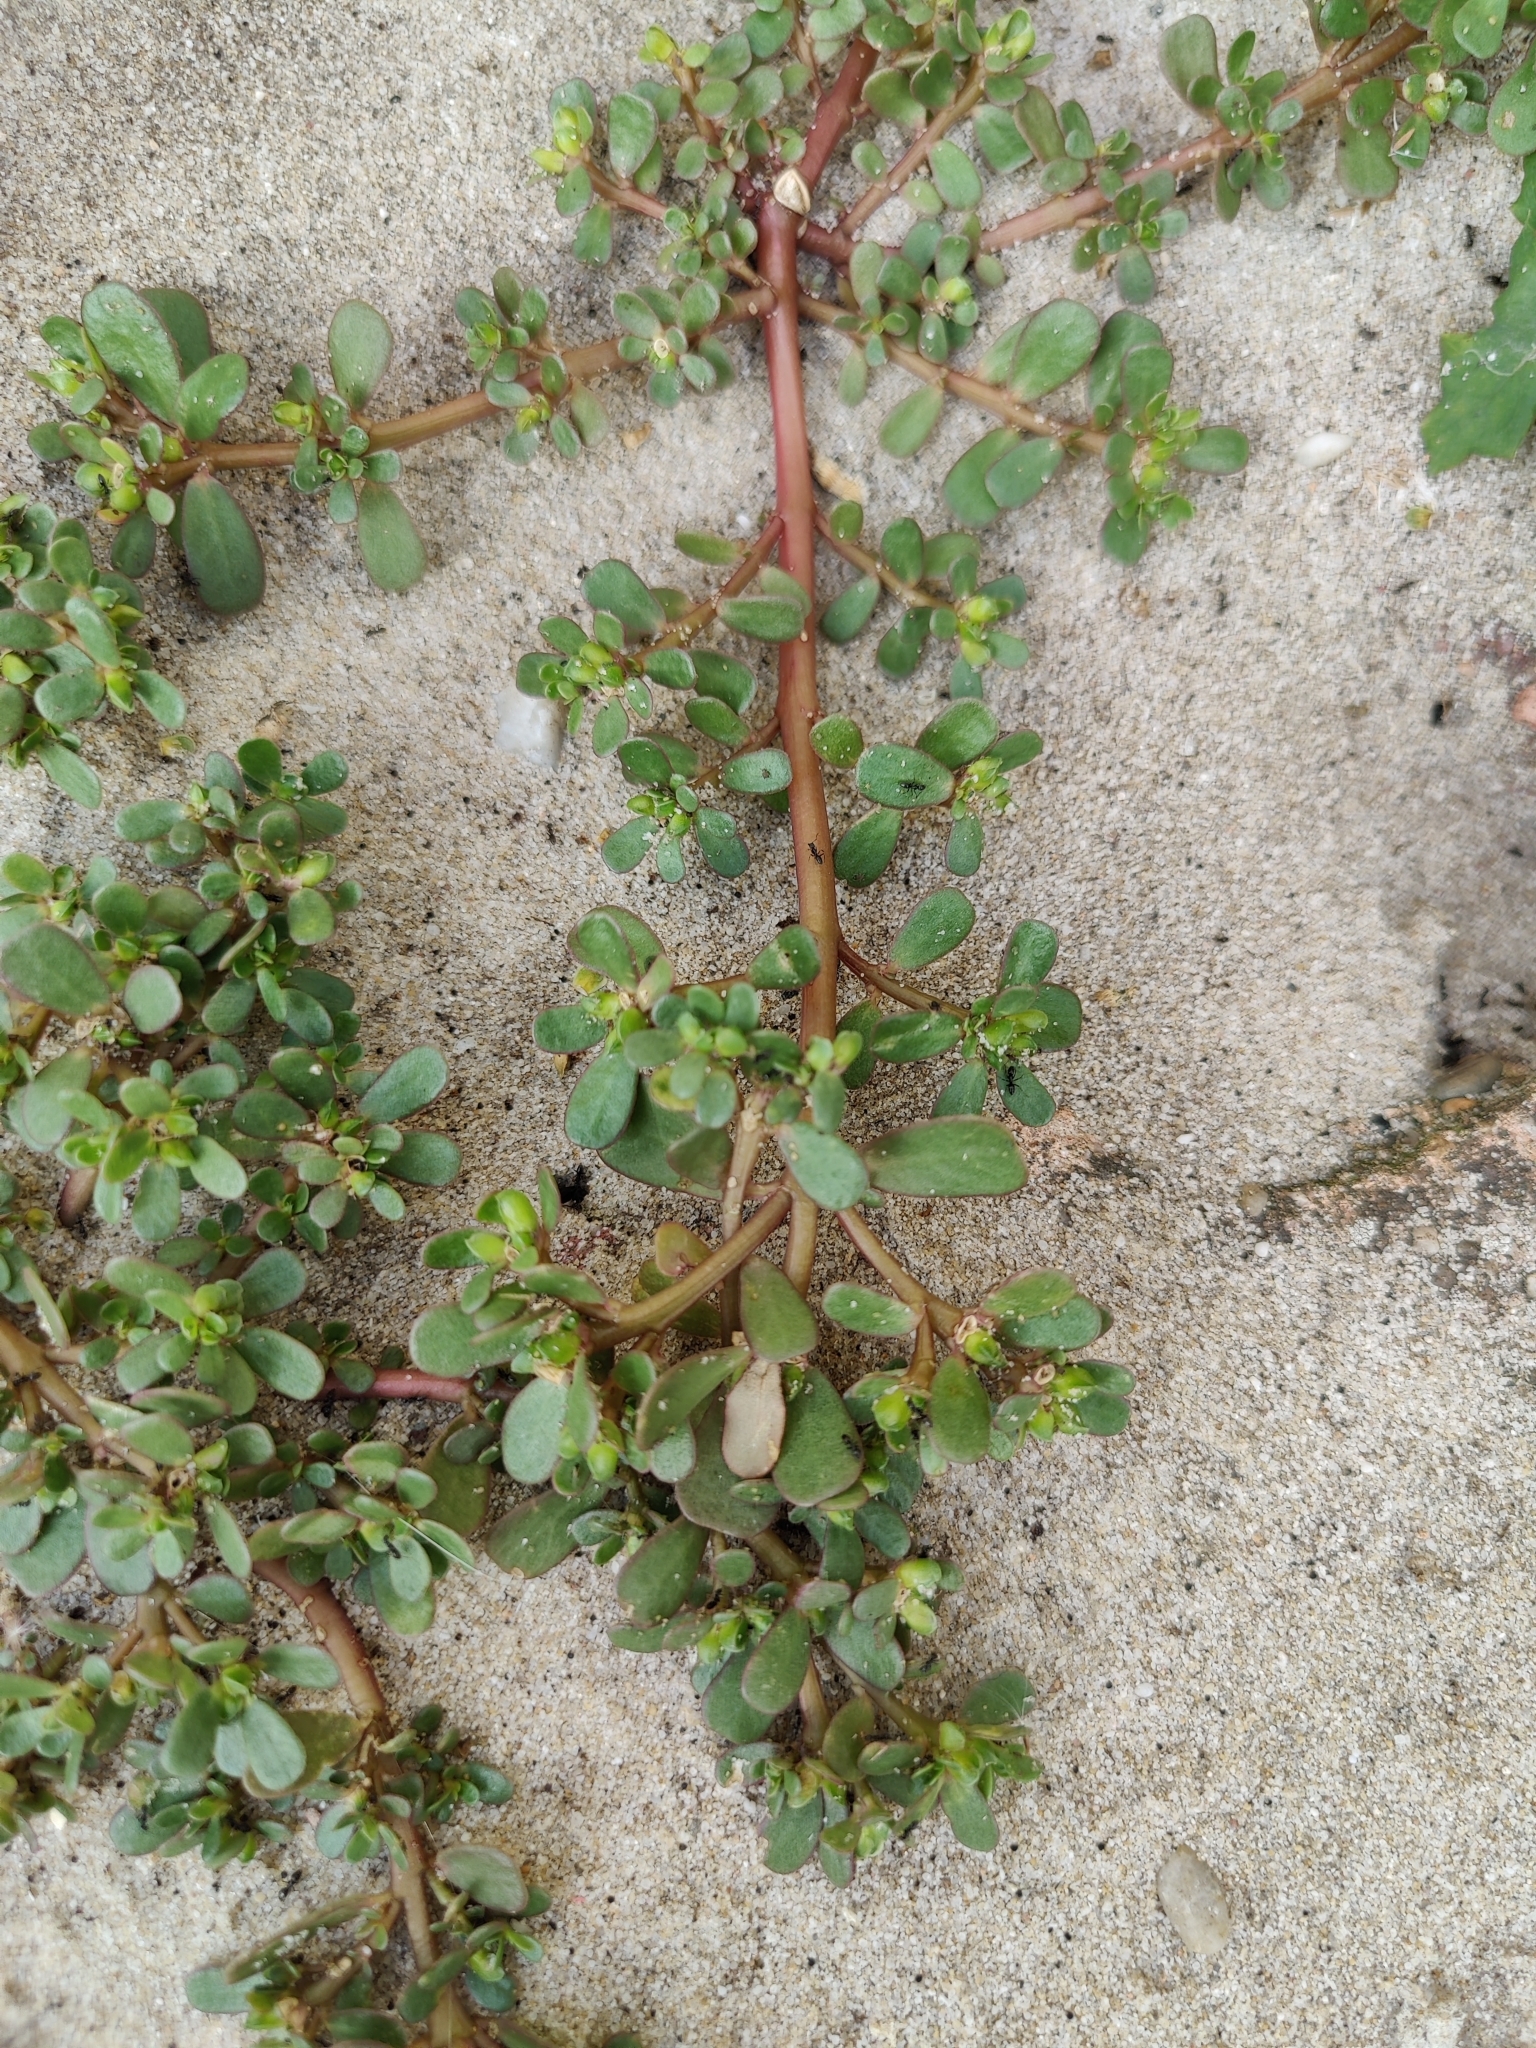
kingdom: Plantae
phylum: Tracheophyta
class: Magnoliopsida
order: Caryophyllales
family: Portulacaceae
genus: Portulaca
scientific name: Portulaca oleracea
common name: Common purslane
